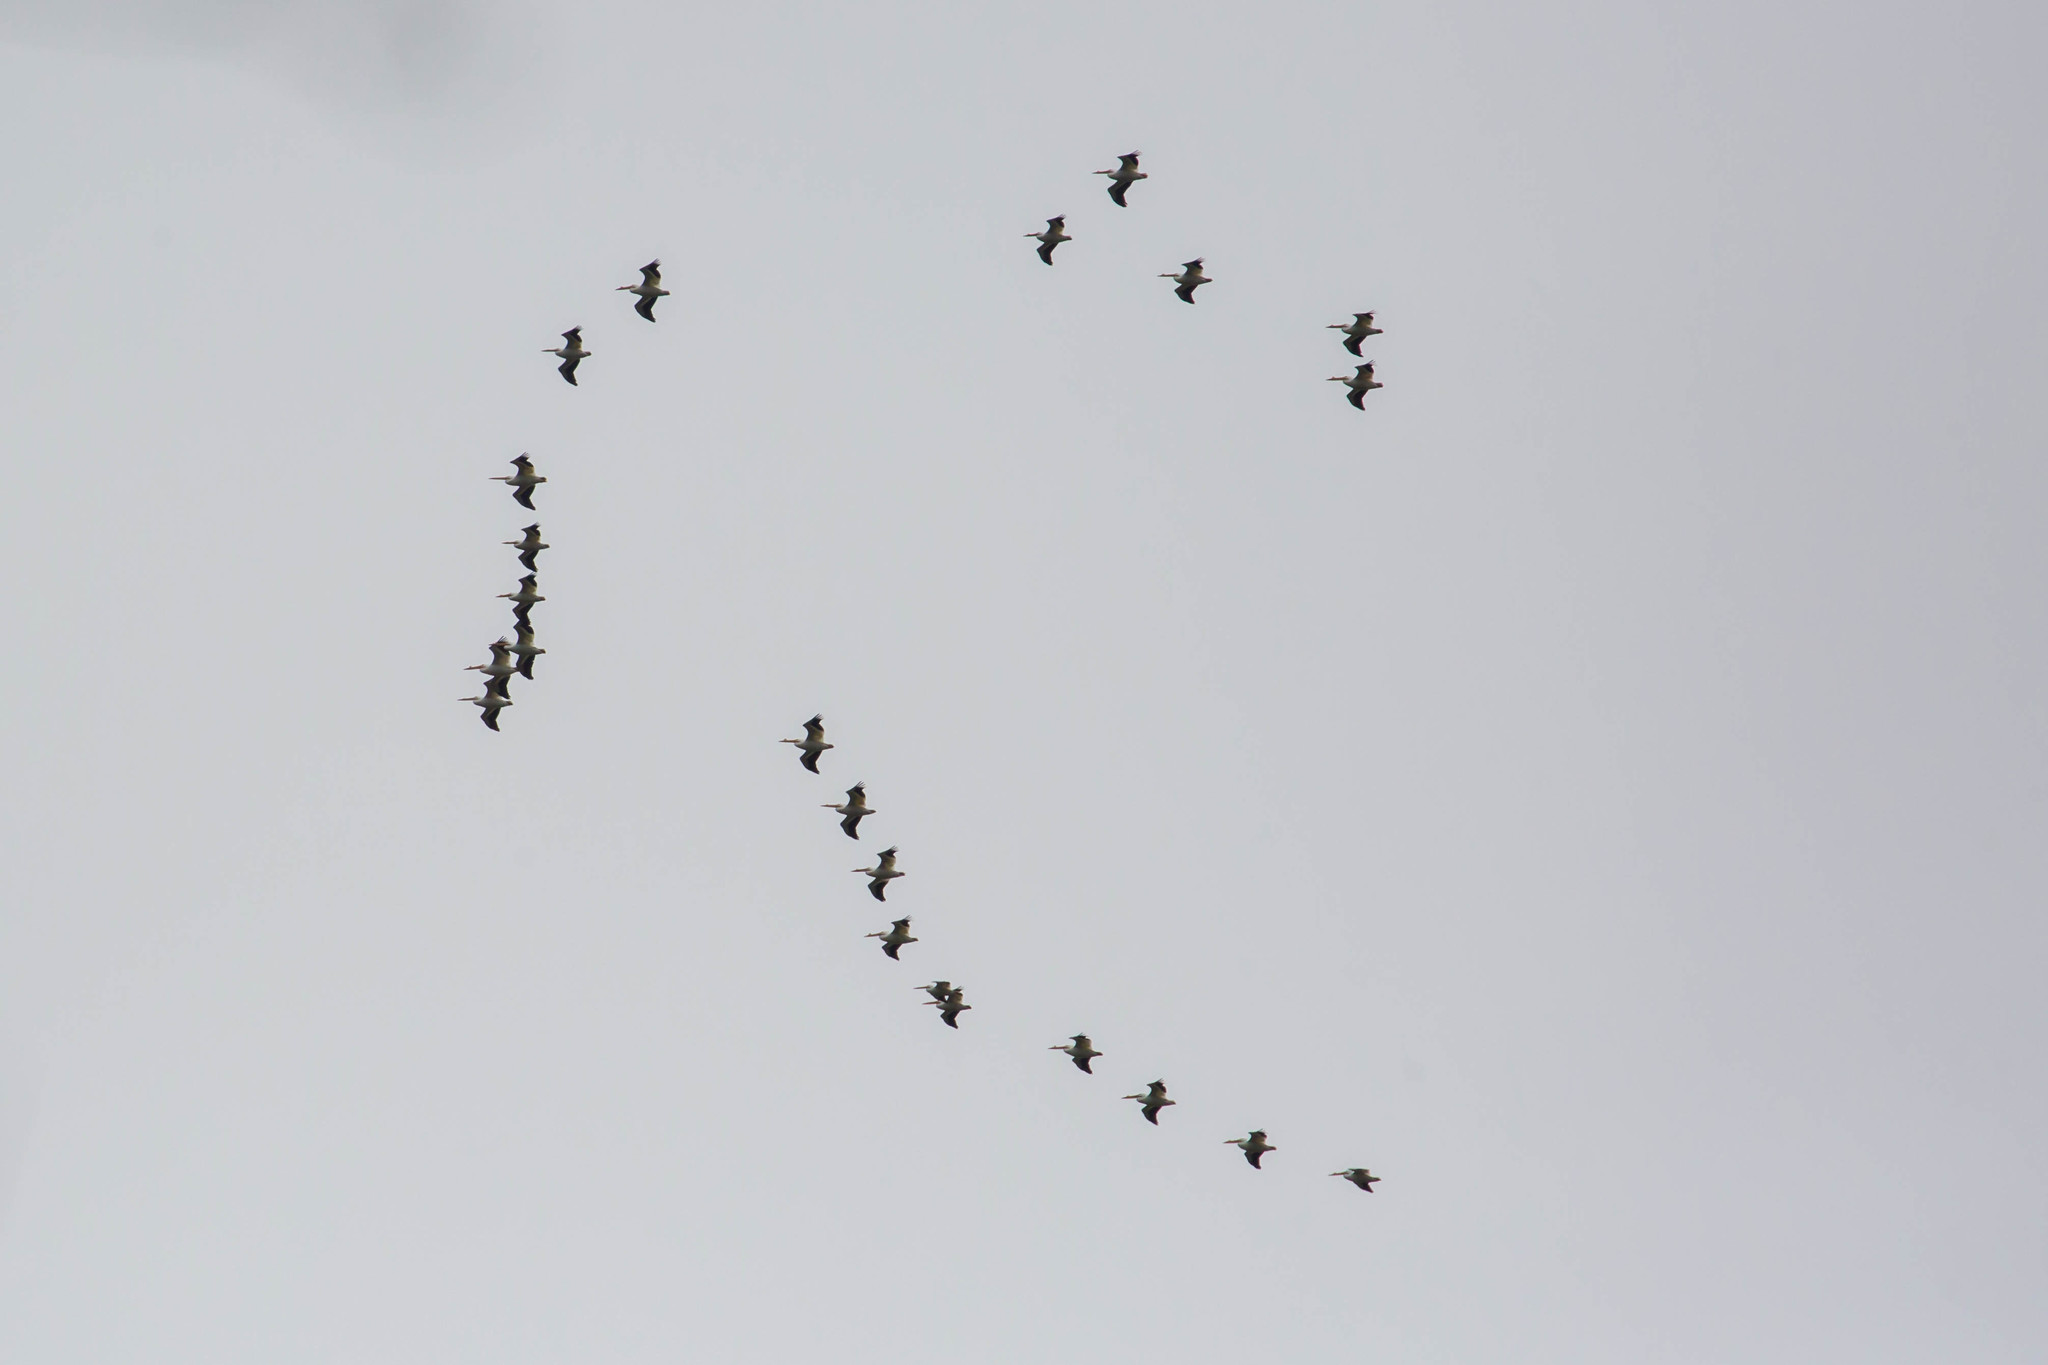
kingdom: Animalia
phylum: Chordata
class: Aves
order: Pelecaniformes
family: Pelecanidae
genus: Pelecanus
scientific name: Pelecanus erythrorhynchos
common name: American white pelican
